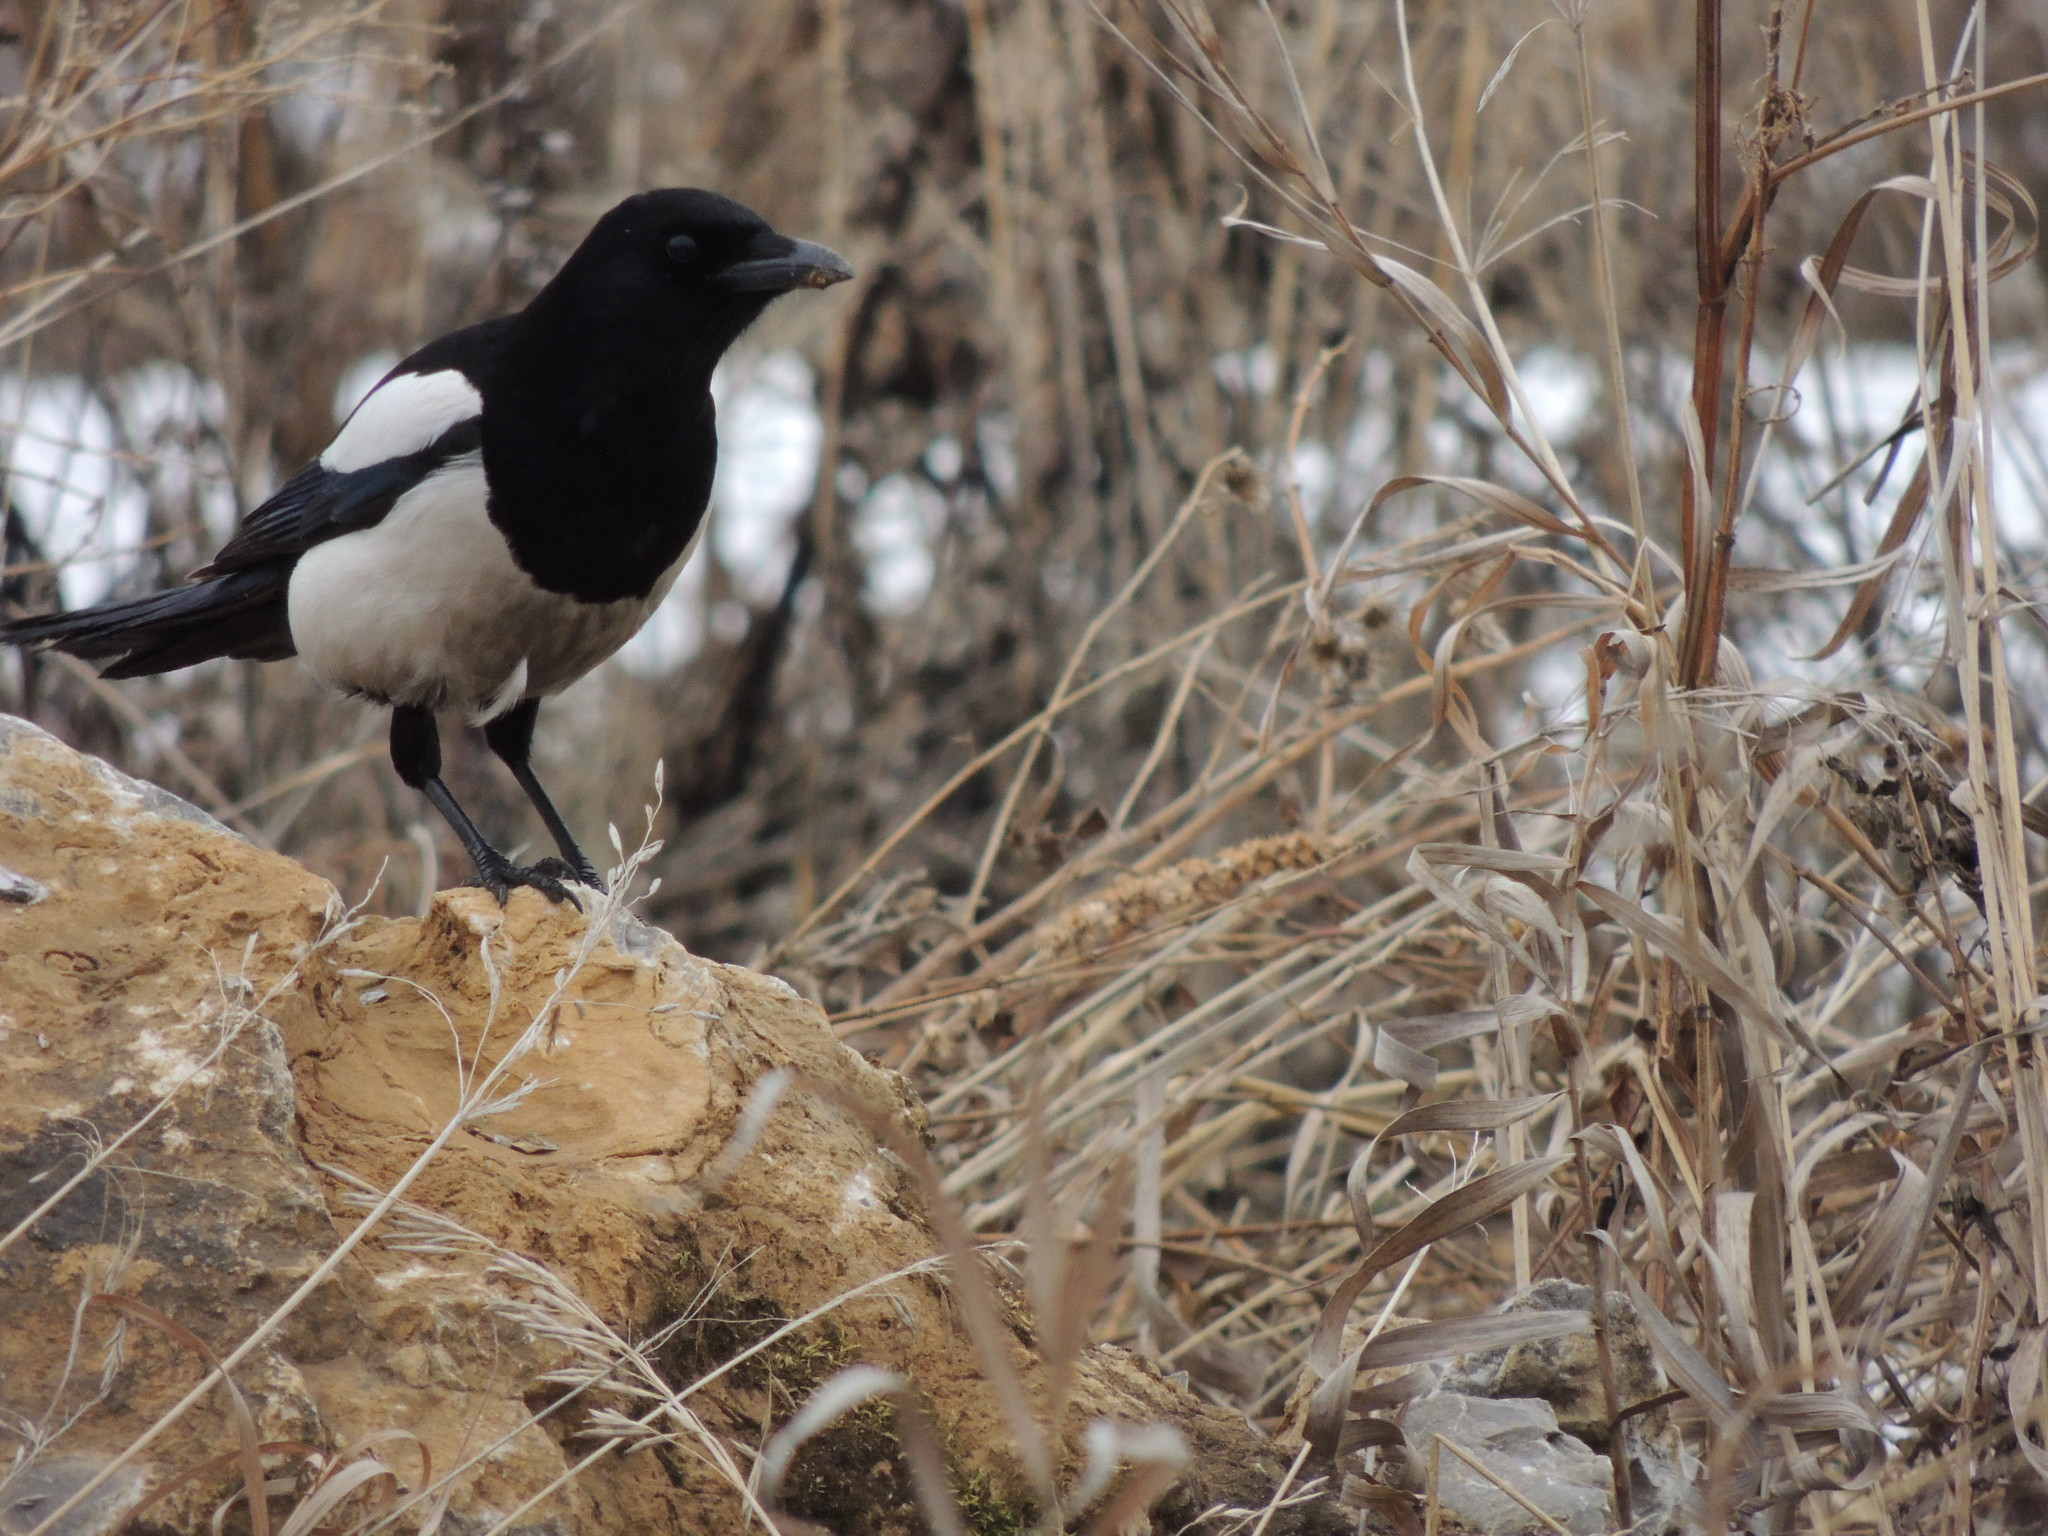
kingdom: Animalia
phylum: Chordata
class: Aves
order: Passeriformes
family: Corvidae
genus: Pica
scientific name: Pica pica
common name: Eurasian magpie
